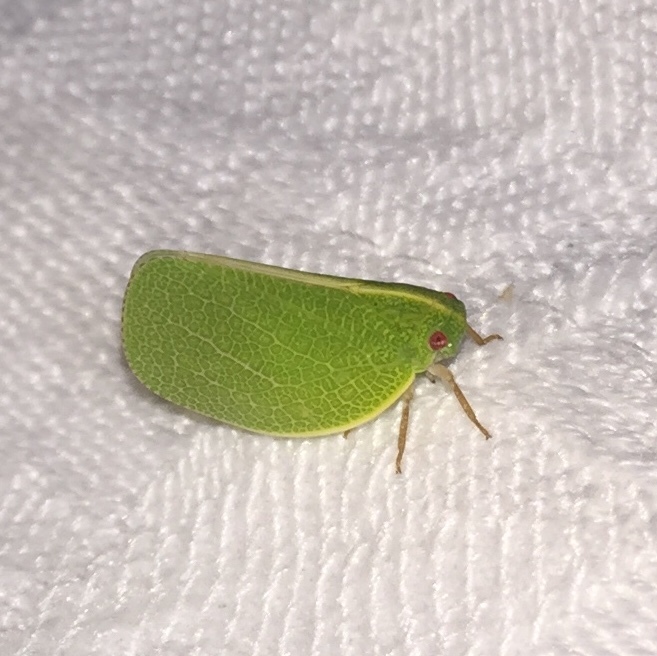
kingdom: Animalia
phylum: Arthropoda
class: Insecta
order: Hemiptera
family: Acanaloniidae
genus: Acanalonia
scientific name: Acanalonia servillei
